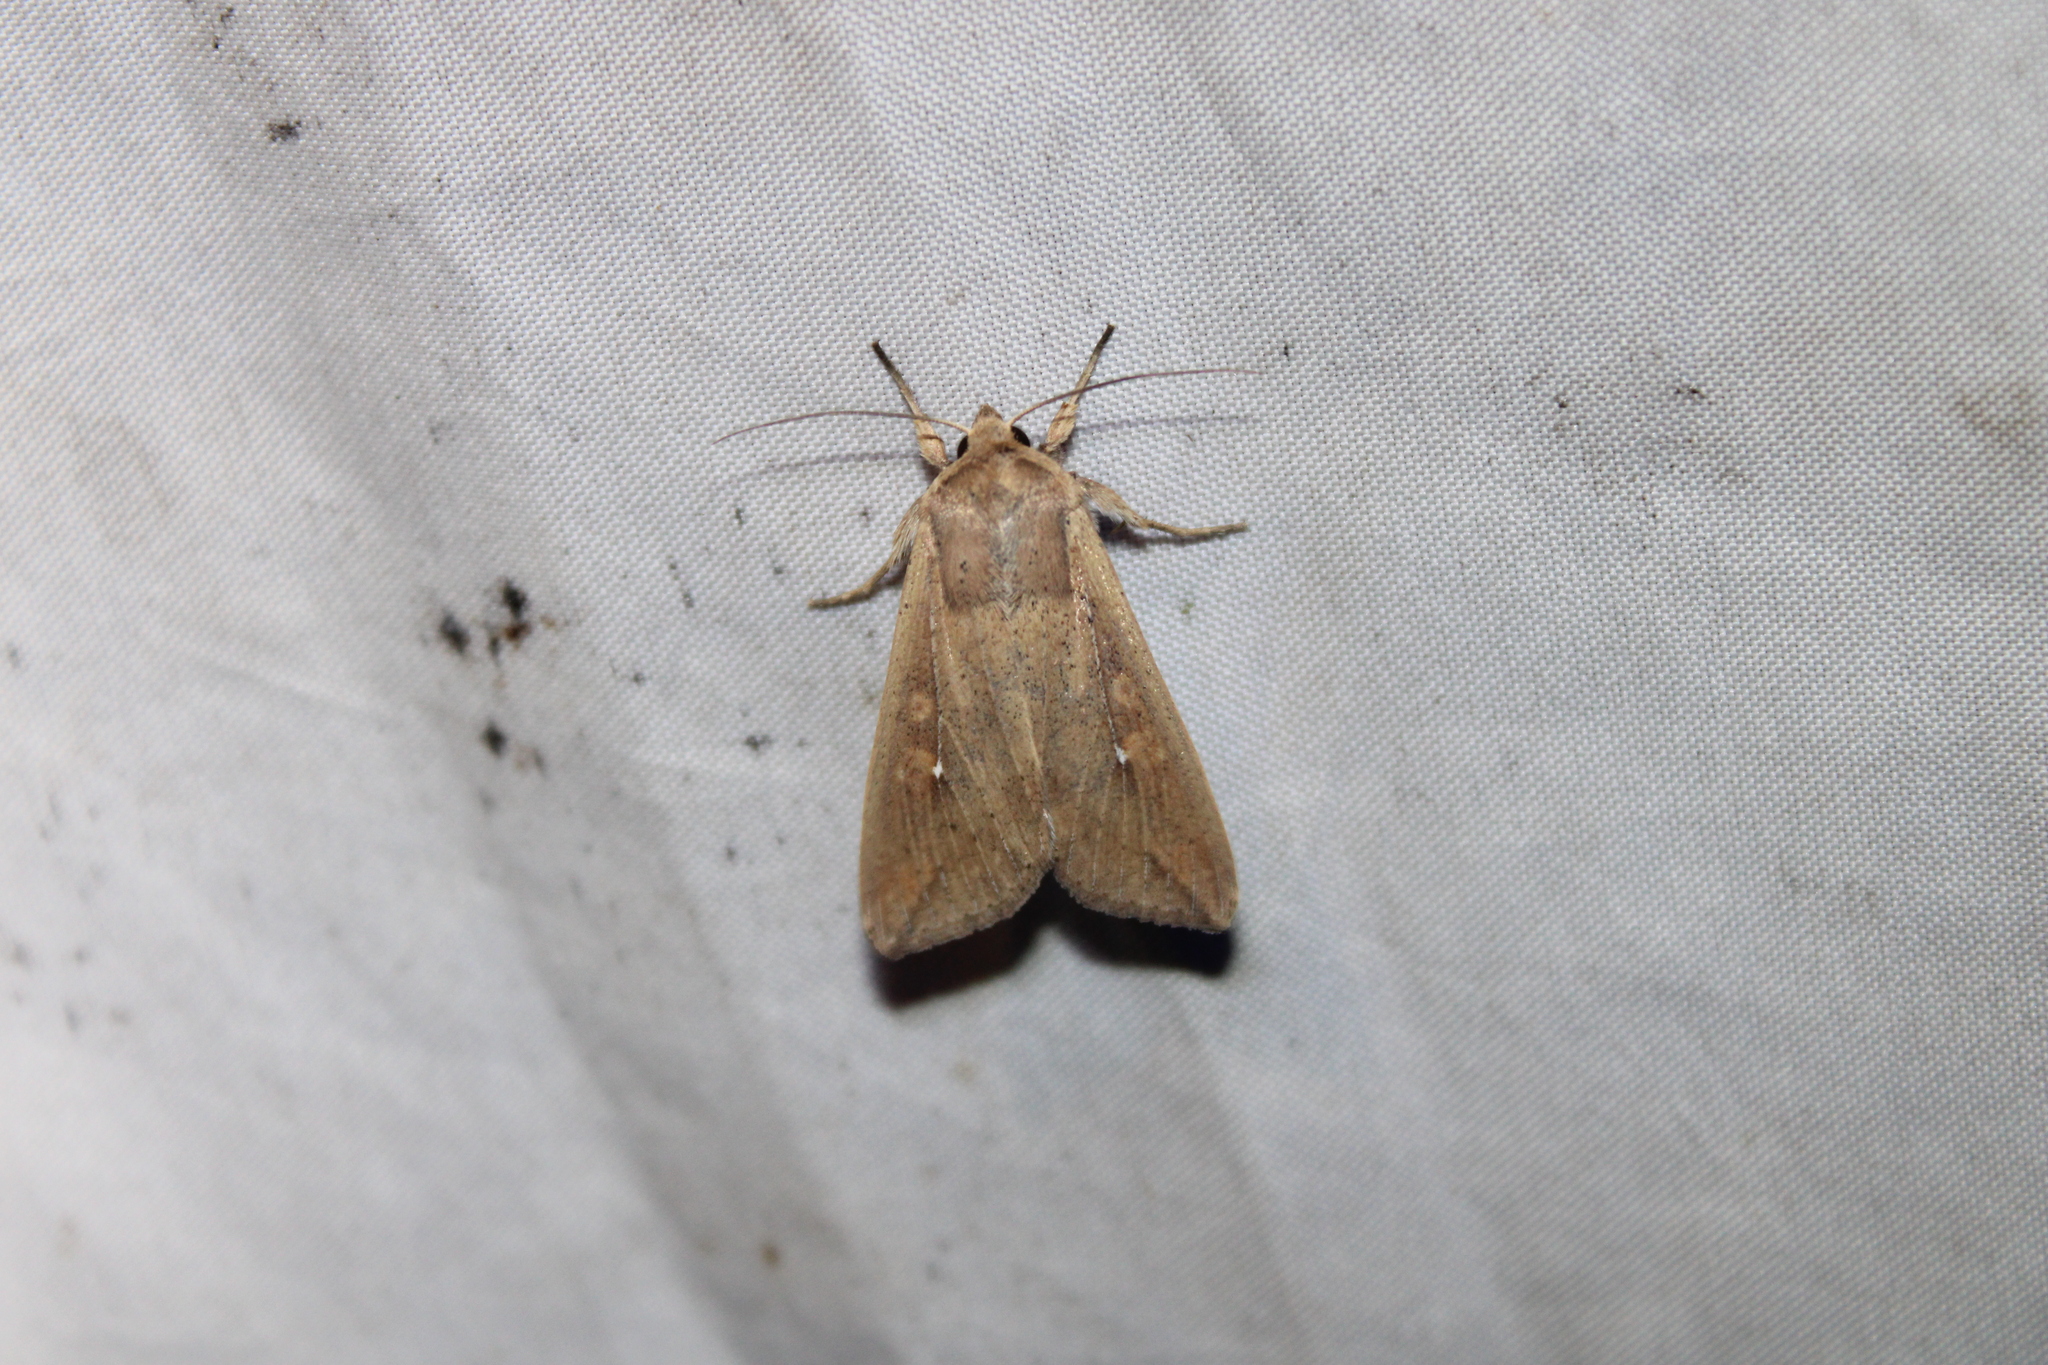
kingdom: Animalia
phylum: Arthropoda
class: Insecta
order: Lepidoptera
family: Noctuidae
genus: Mythimna
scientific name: Mythimna unipuncta
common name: White-speck
